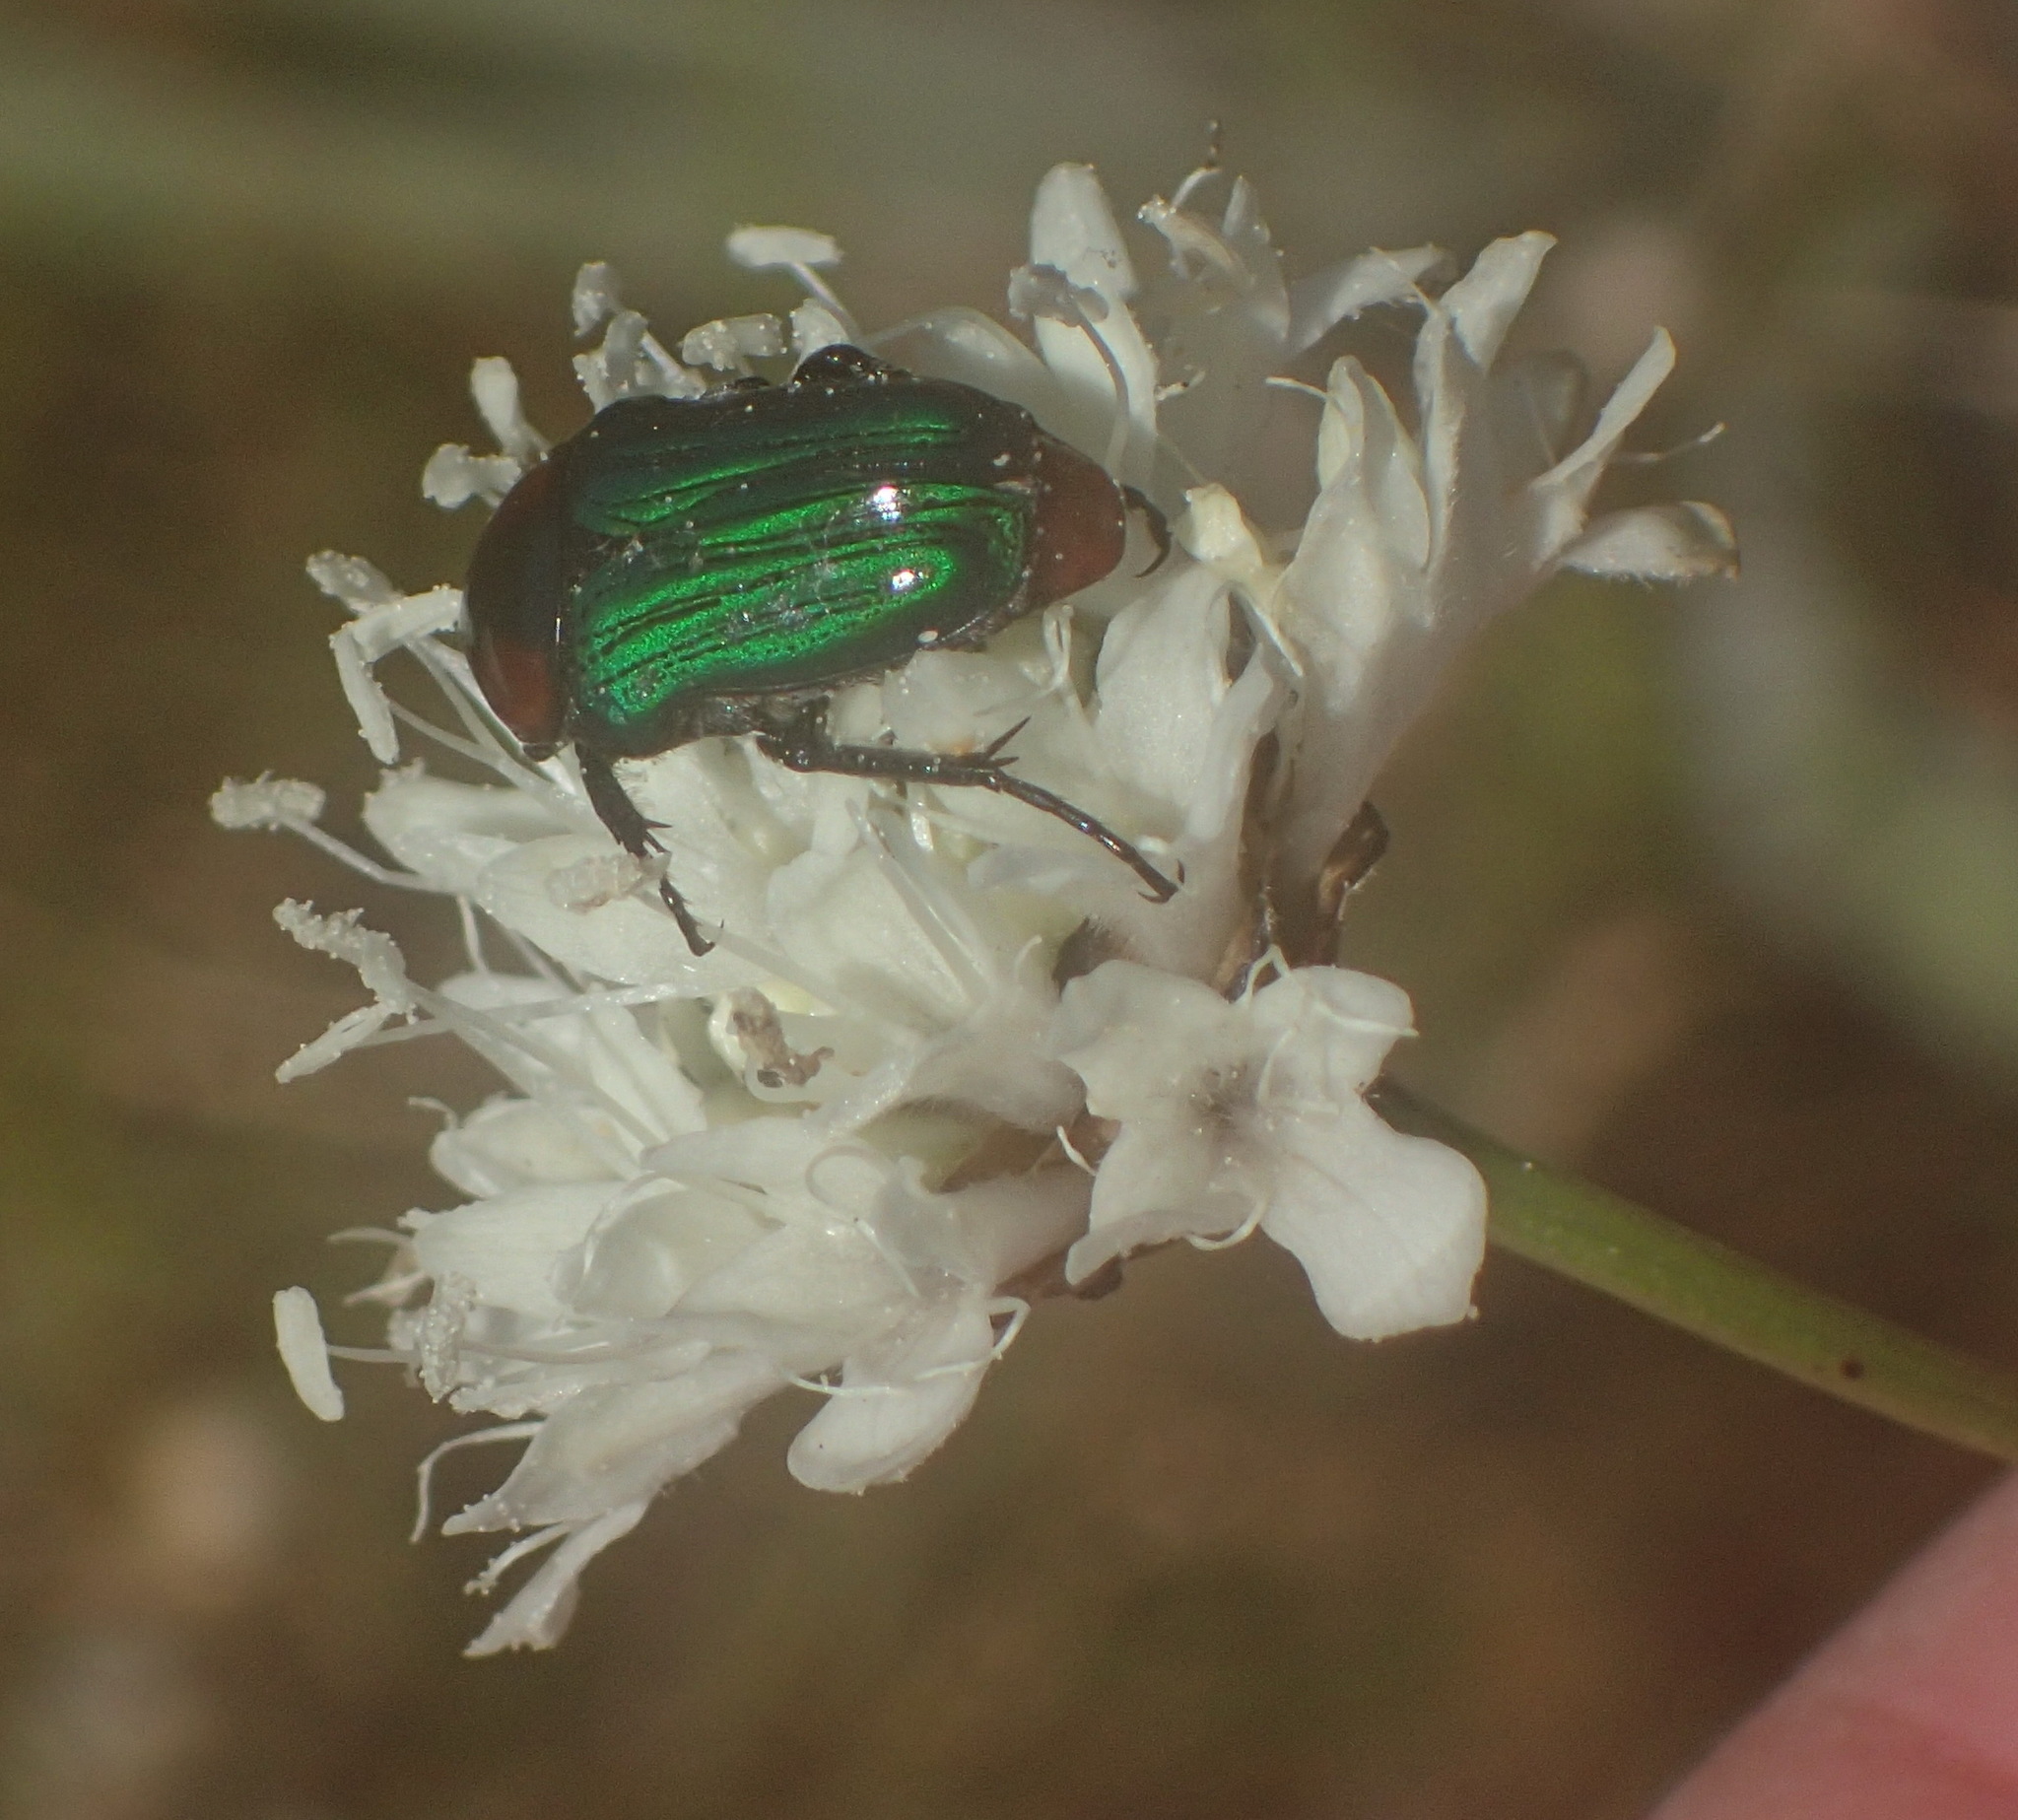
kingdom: Animalia
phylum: Arthropoda
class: Insecta
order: Coleoptera
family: Scarabaeidae
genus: Leucocelis
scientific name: Leucocelis amethystina
